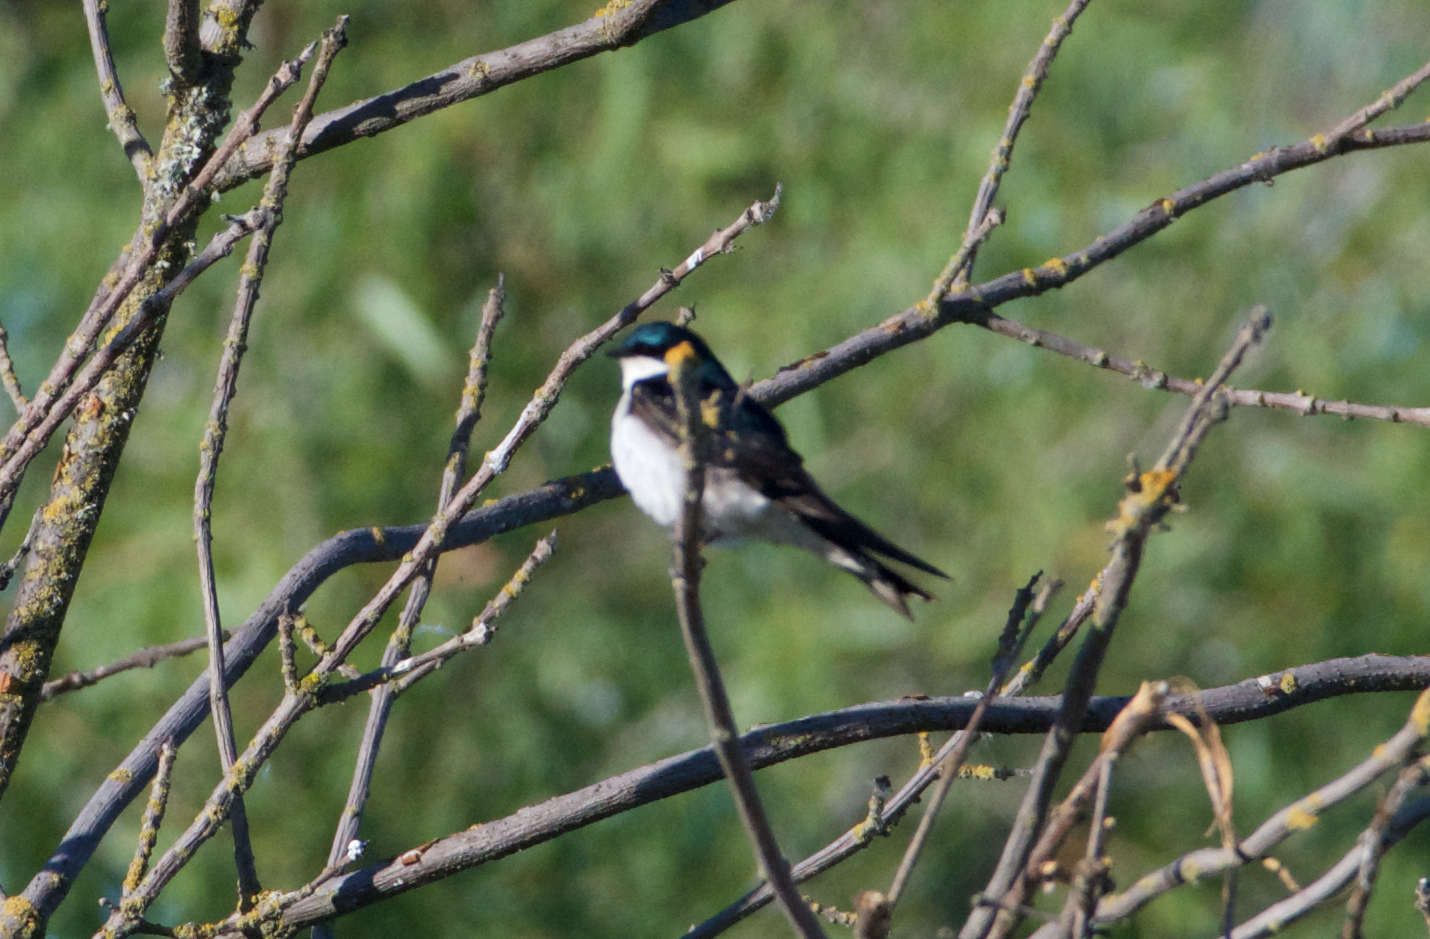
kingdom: Animalia
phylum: Chordata
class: Aves
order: Passeriformes
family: Hirundinidae
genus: Tachycineta
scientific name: Tachycineta bicolor
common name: Tree swallow
